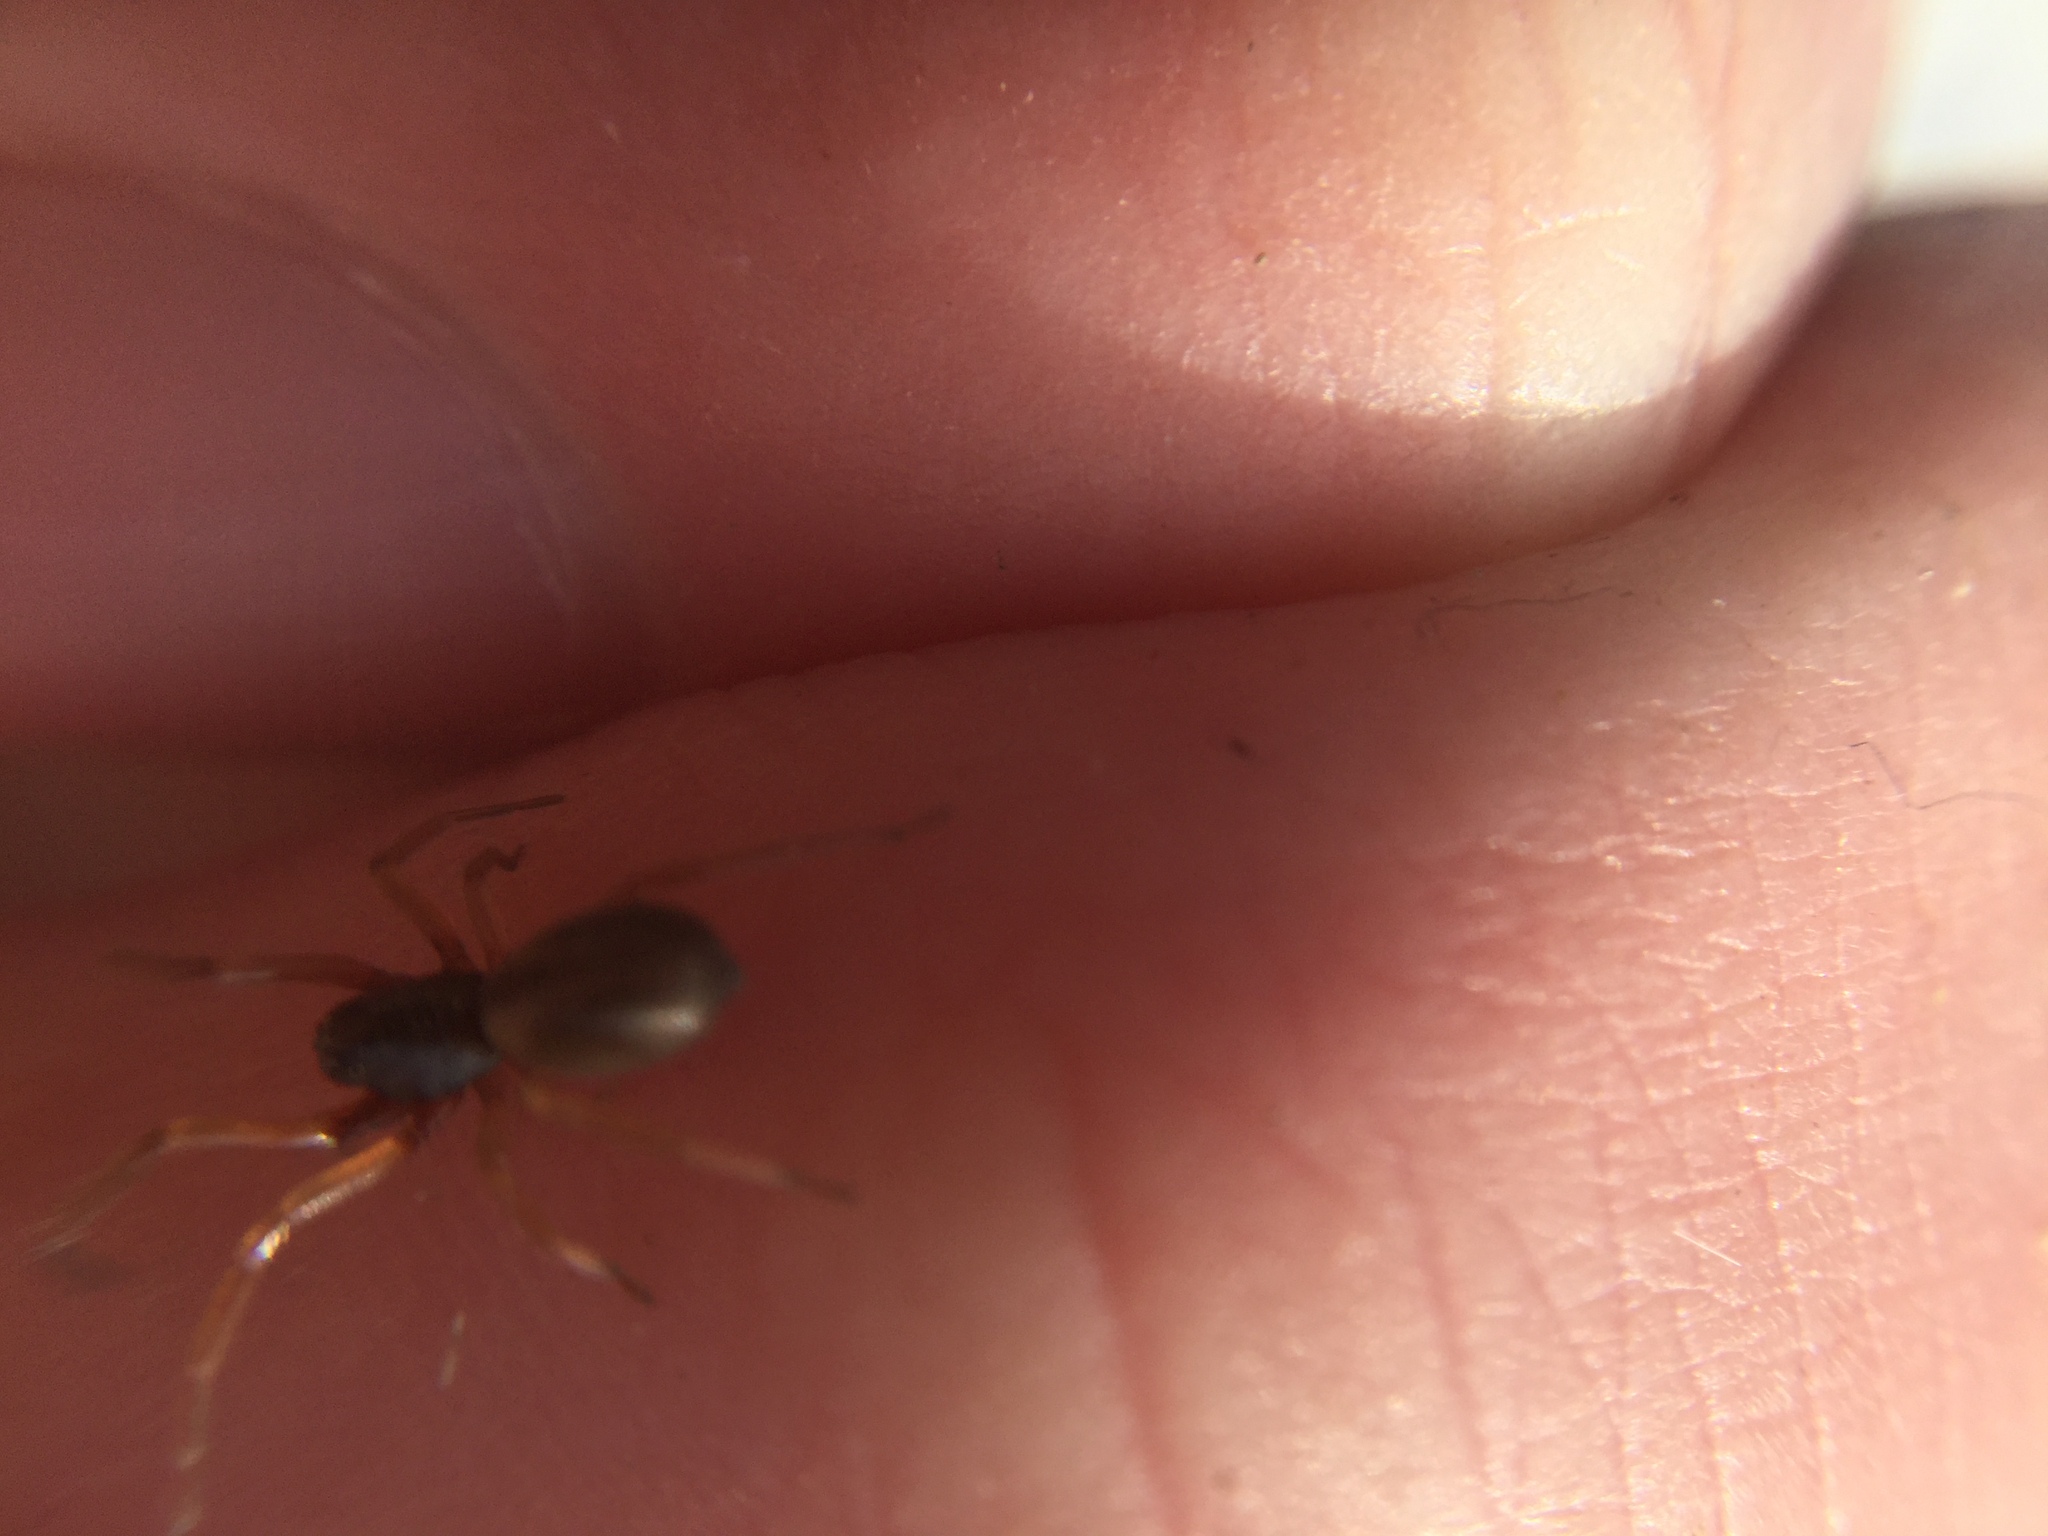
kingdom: Animalia
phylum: Arthropoda
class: Arachnida
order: Araneae
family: Trachelidae
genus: Meriola
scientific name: Meriola decepta
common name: Corinnid sac spiders
